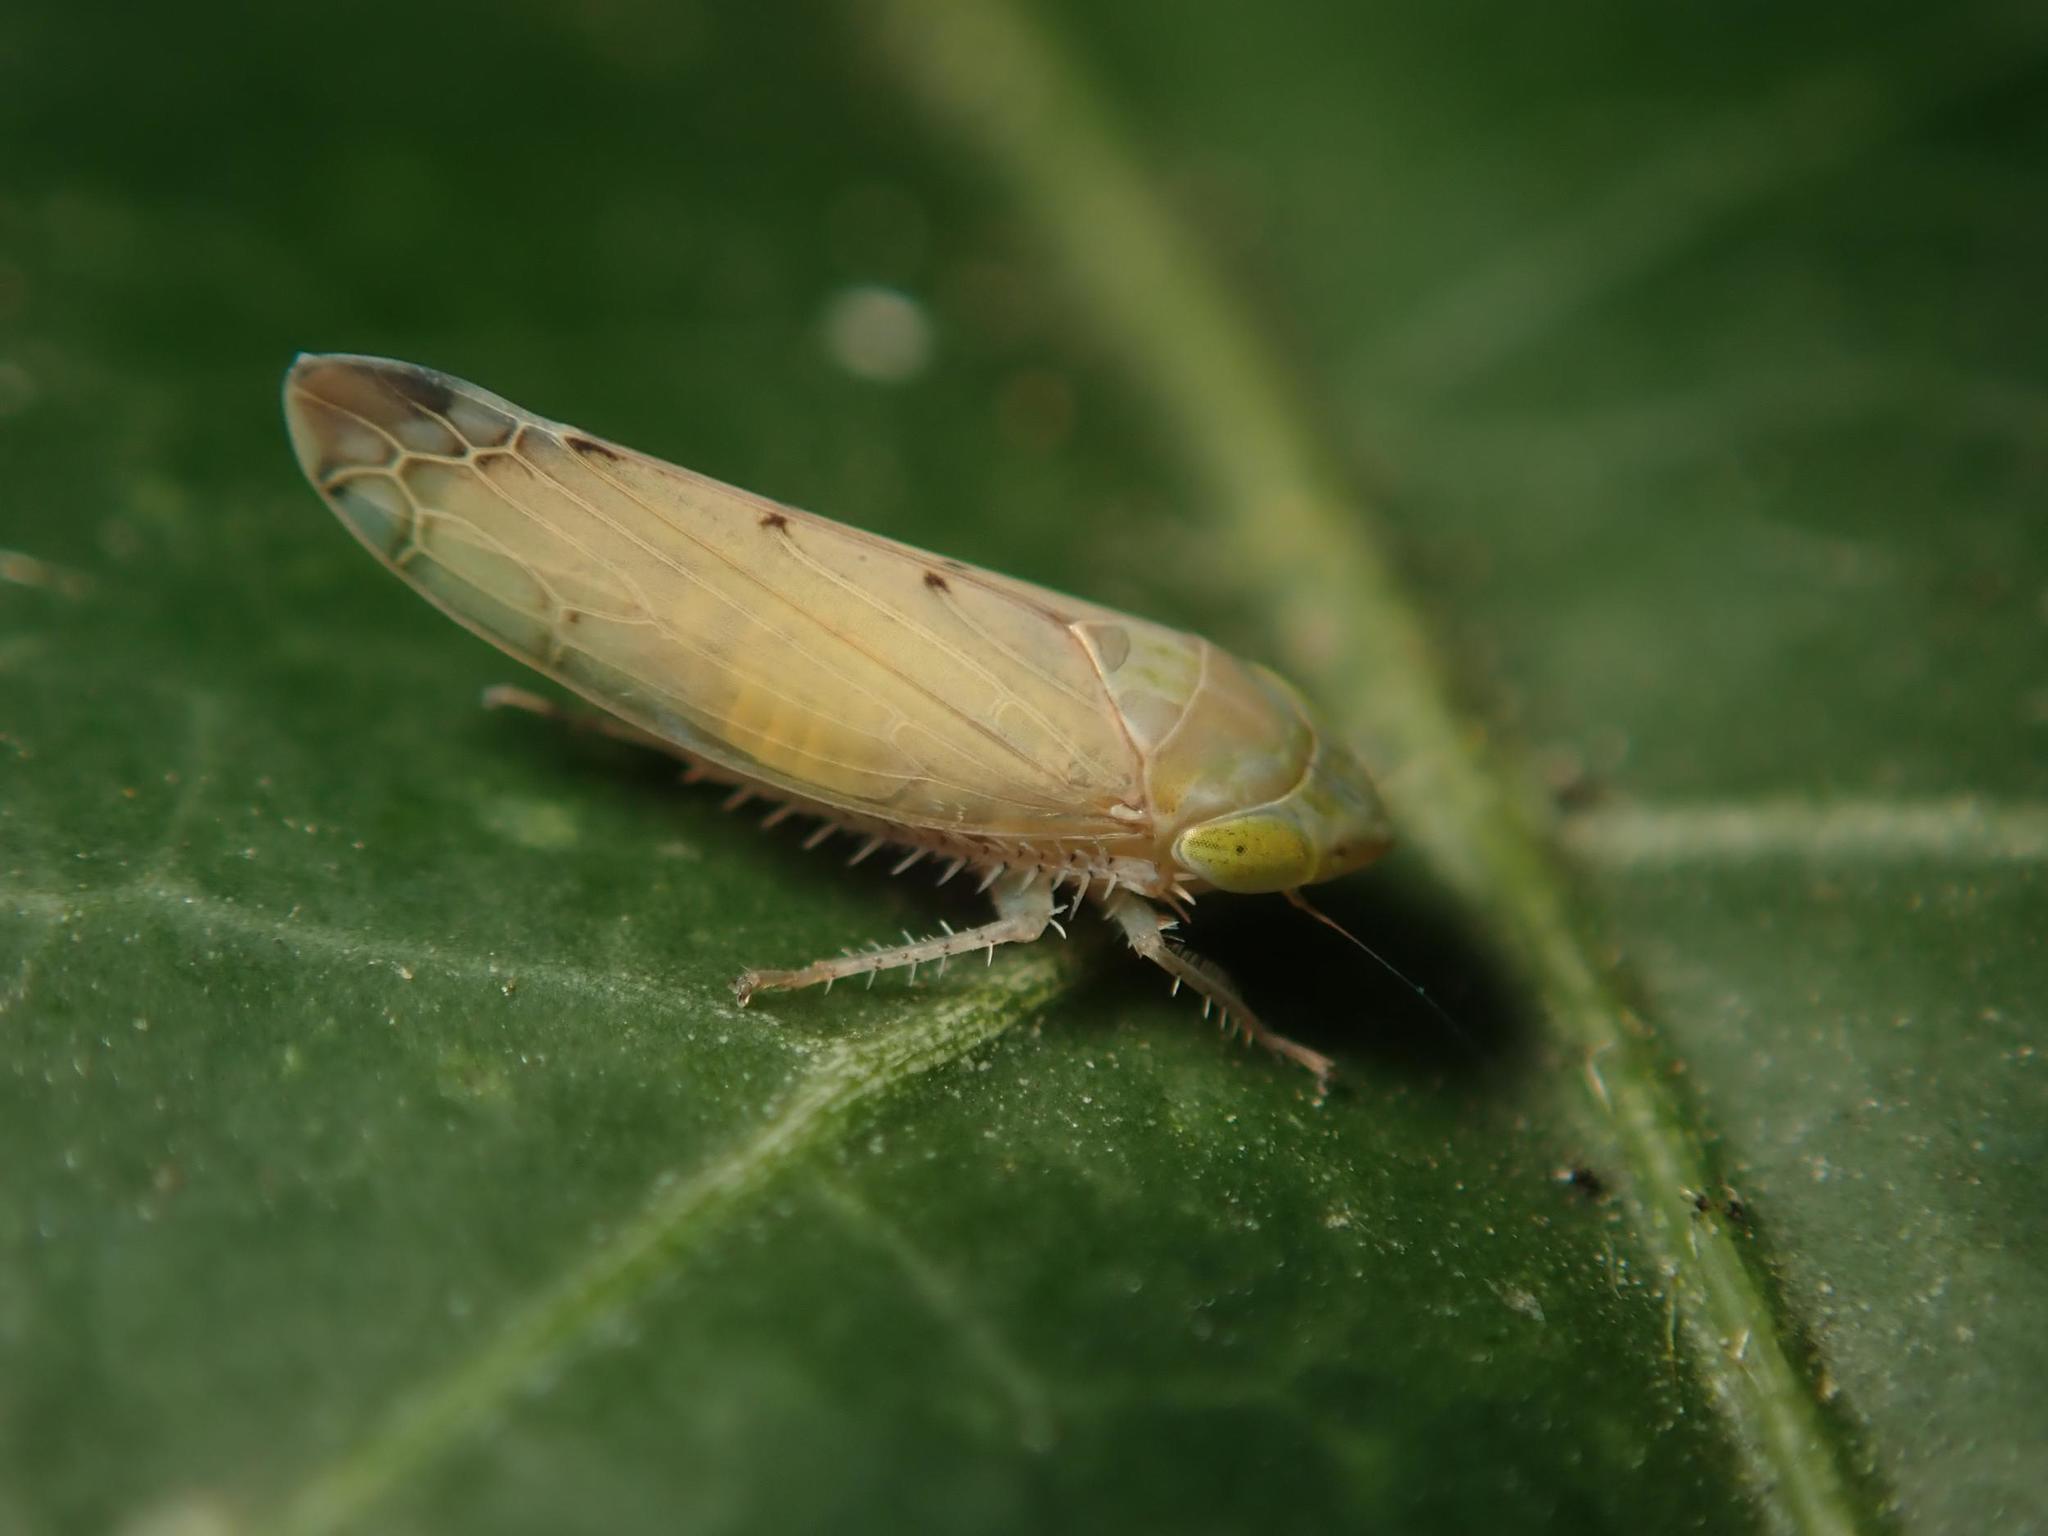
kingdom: Animalia
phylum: Arthropoda
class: Insecta
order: Hemiptera
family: Cicadellidae
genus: Synophropsis
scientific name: Synophropsis lauri
